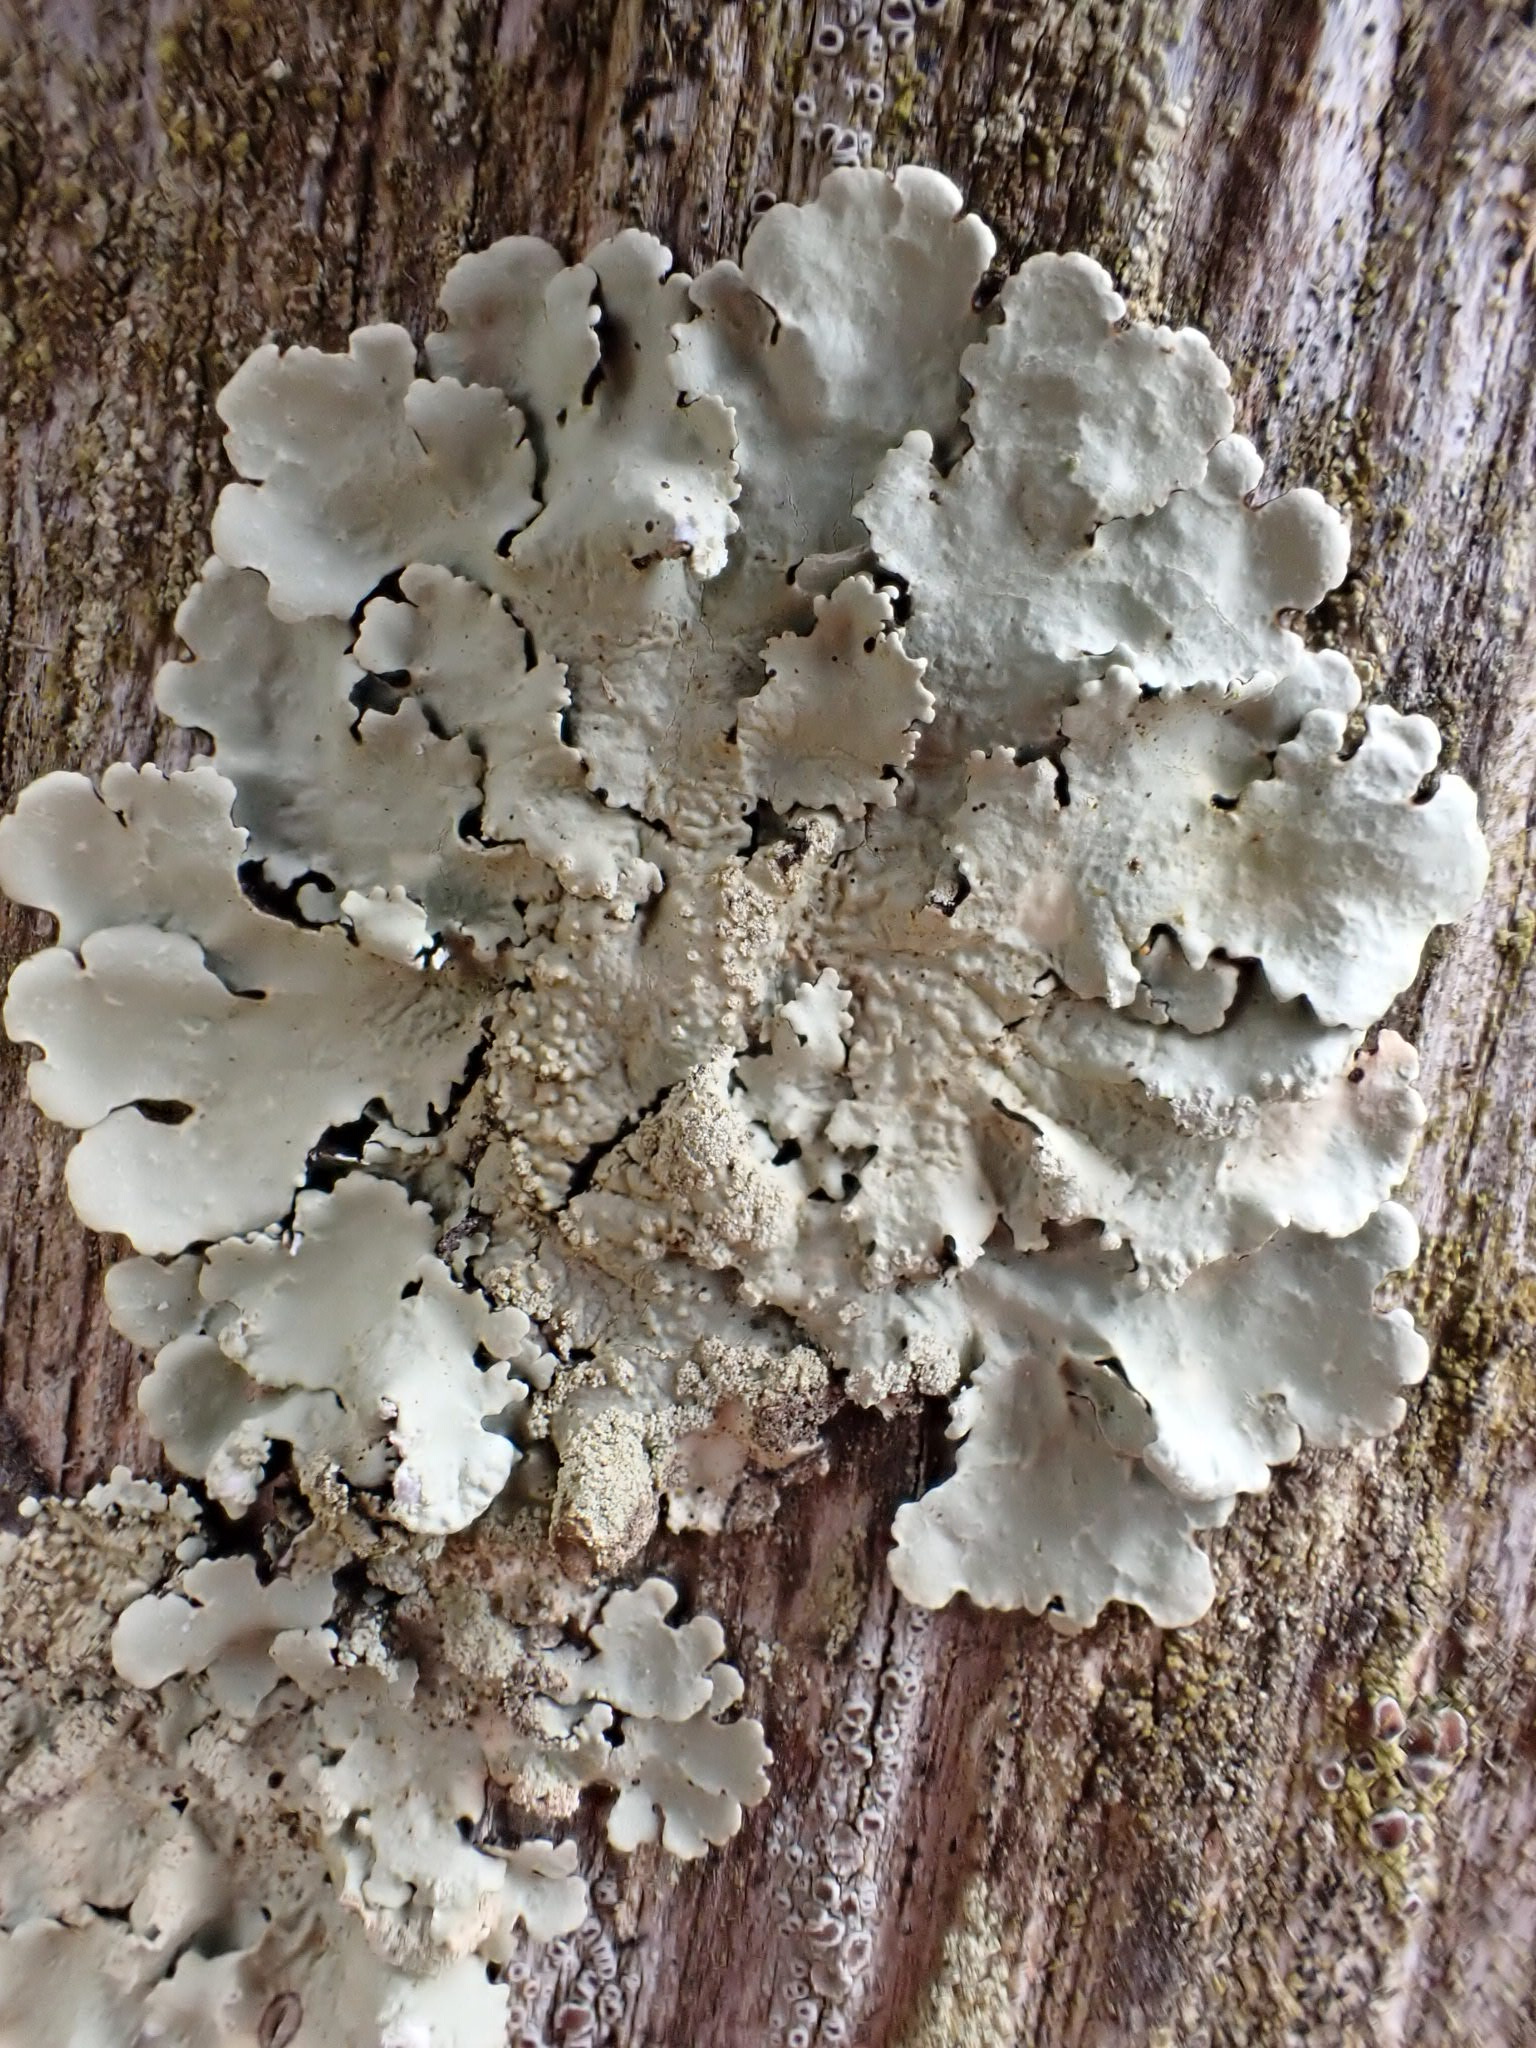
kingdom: Fungi
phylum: Ascomycota
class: Lecanoromycetes
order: Lecanorales
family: Parmeliaceae
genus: Flavoparmelia
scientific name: Flavoparmelia caperata
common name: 40-mile per hour lichen
